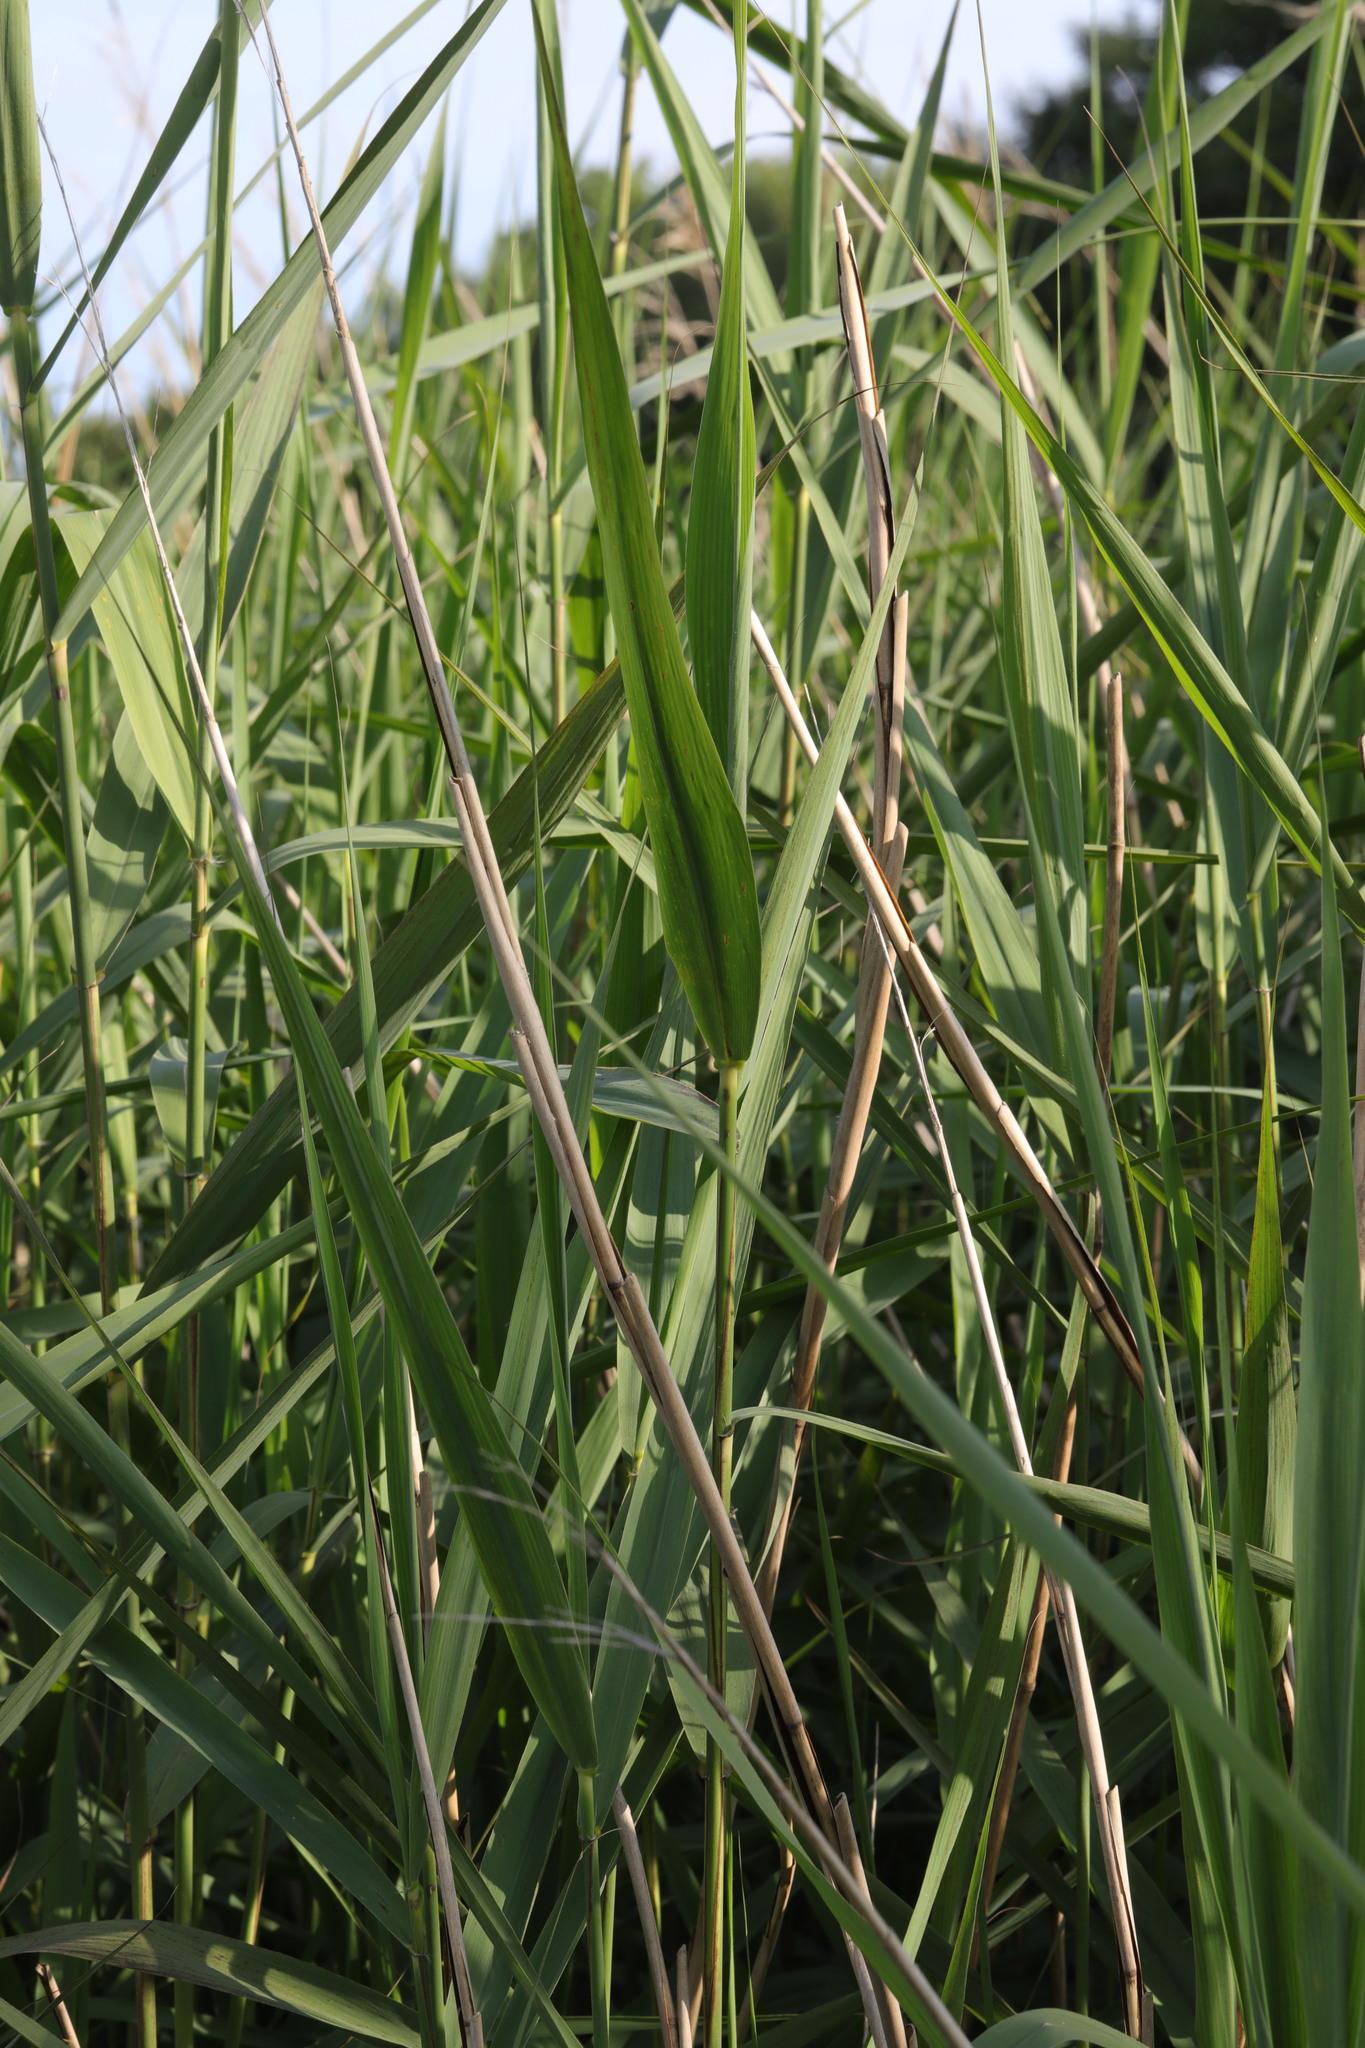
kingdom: Plantae
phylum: Tracheophyta
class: Liliopsida
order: Poales
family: Poaceae
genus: Phragmites
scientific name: Phragmites australis
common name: Common reed
